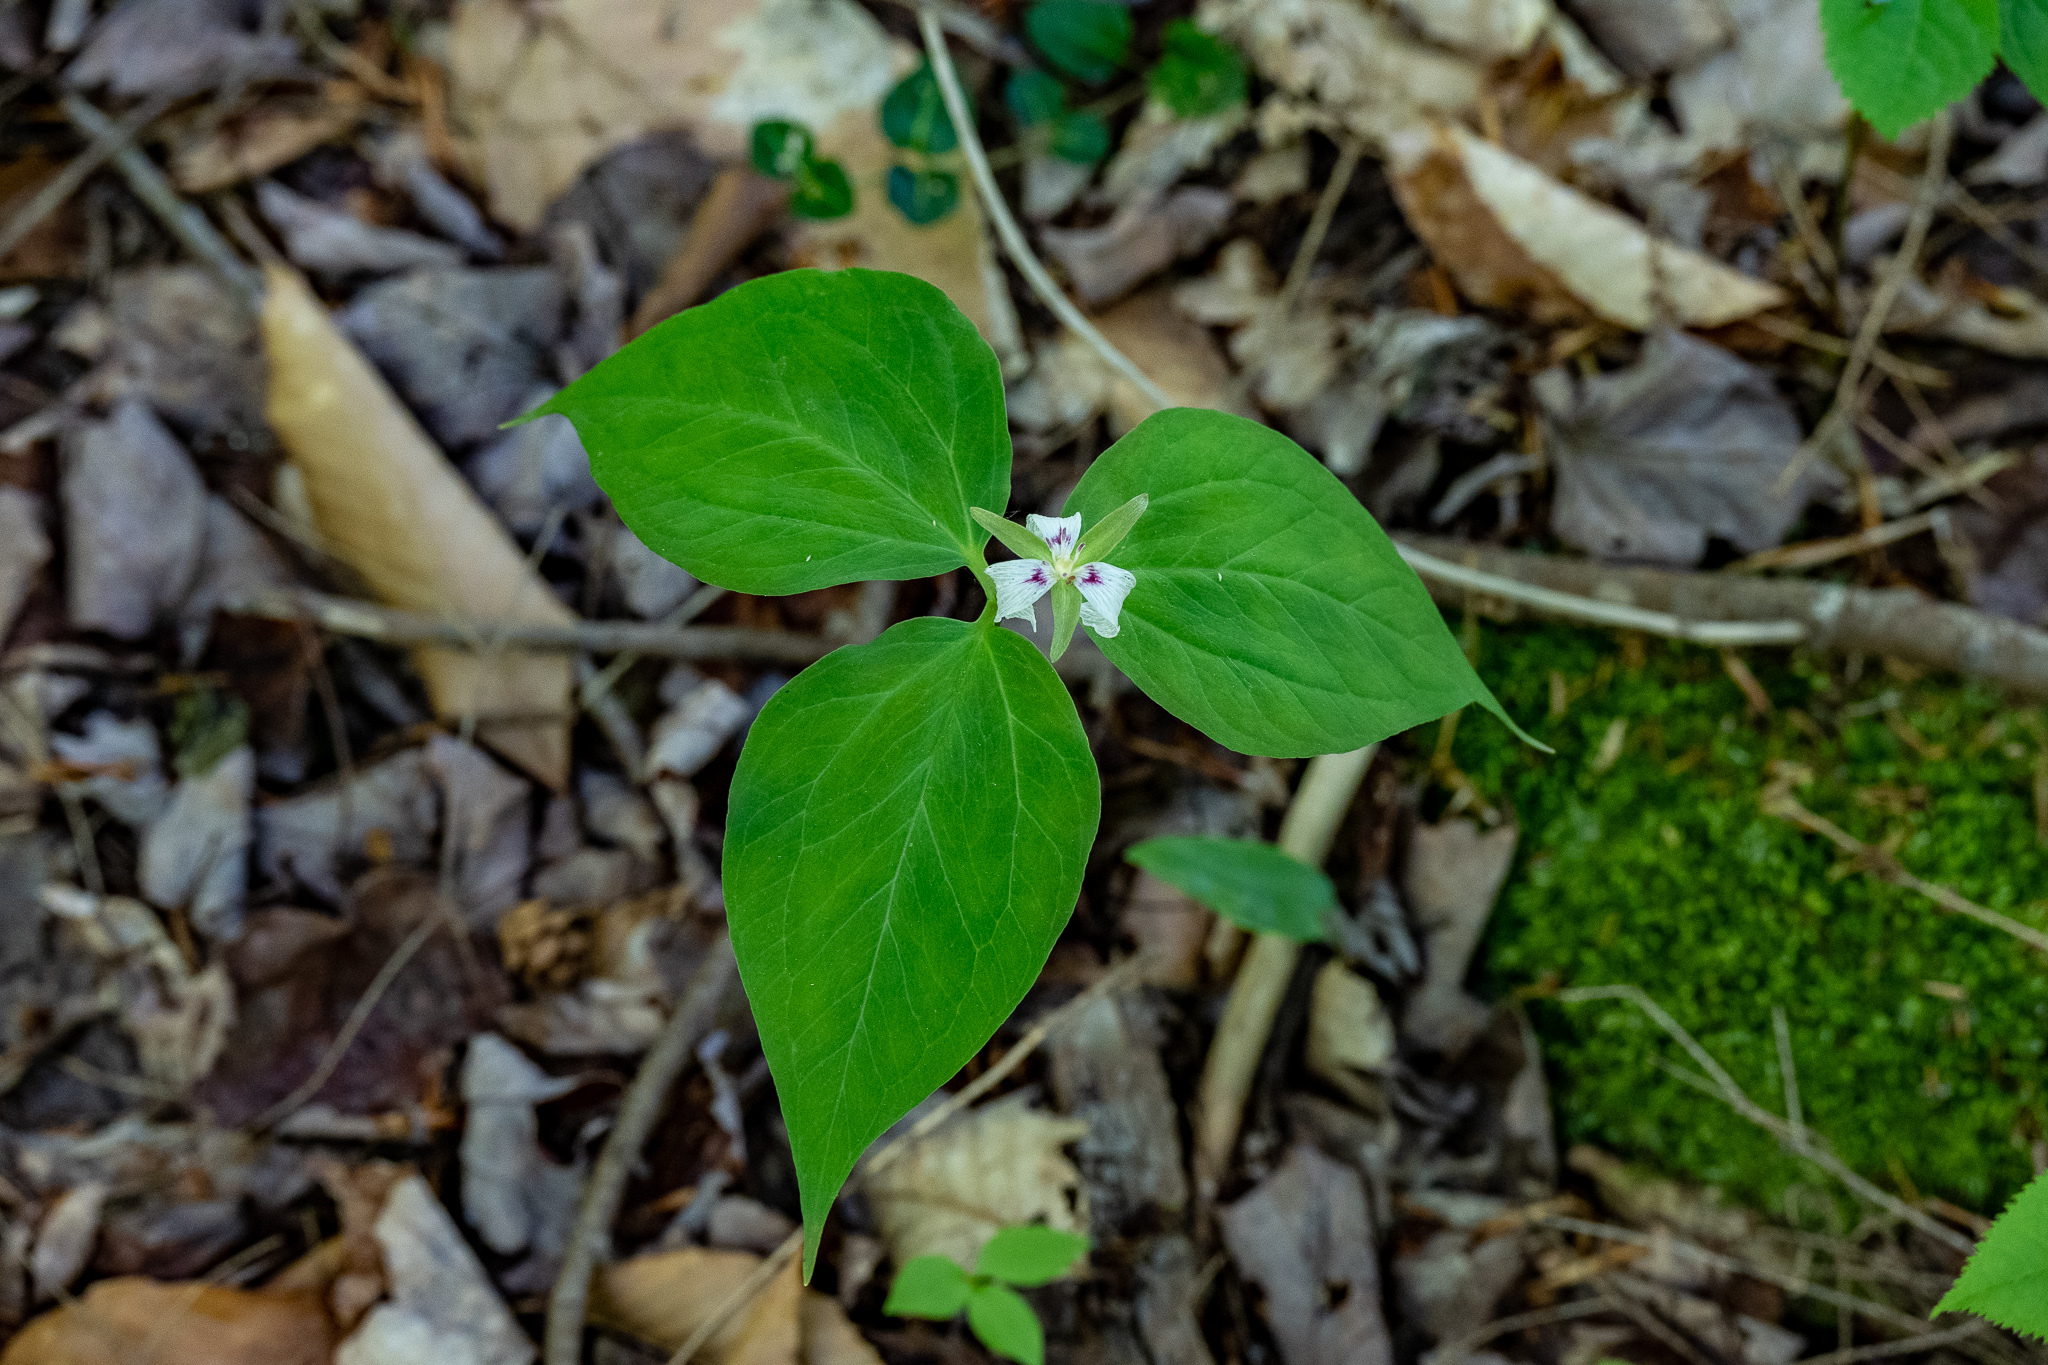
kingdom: Plantae
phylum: Tracheophyta
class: Liliopsida
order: Liliales
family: Melanthiaceae
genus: Trillium
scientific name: Trillium undulatum
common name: Paint trillium
